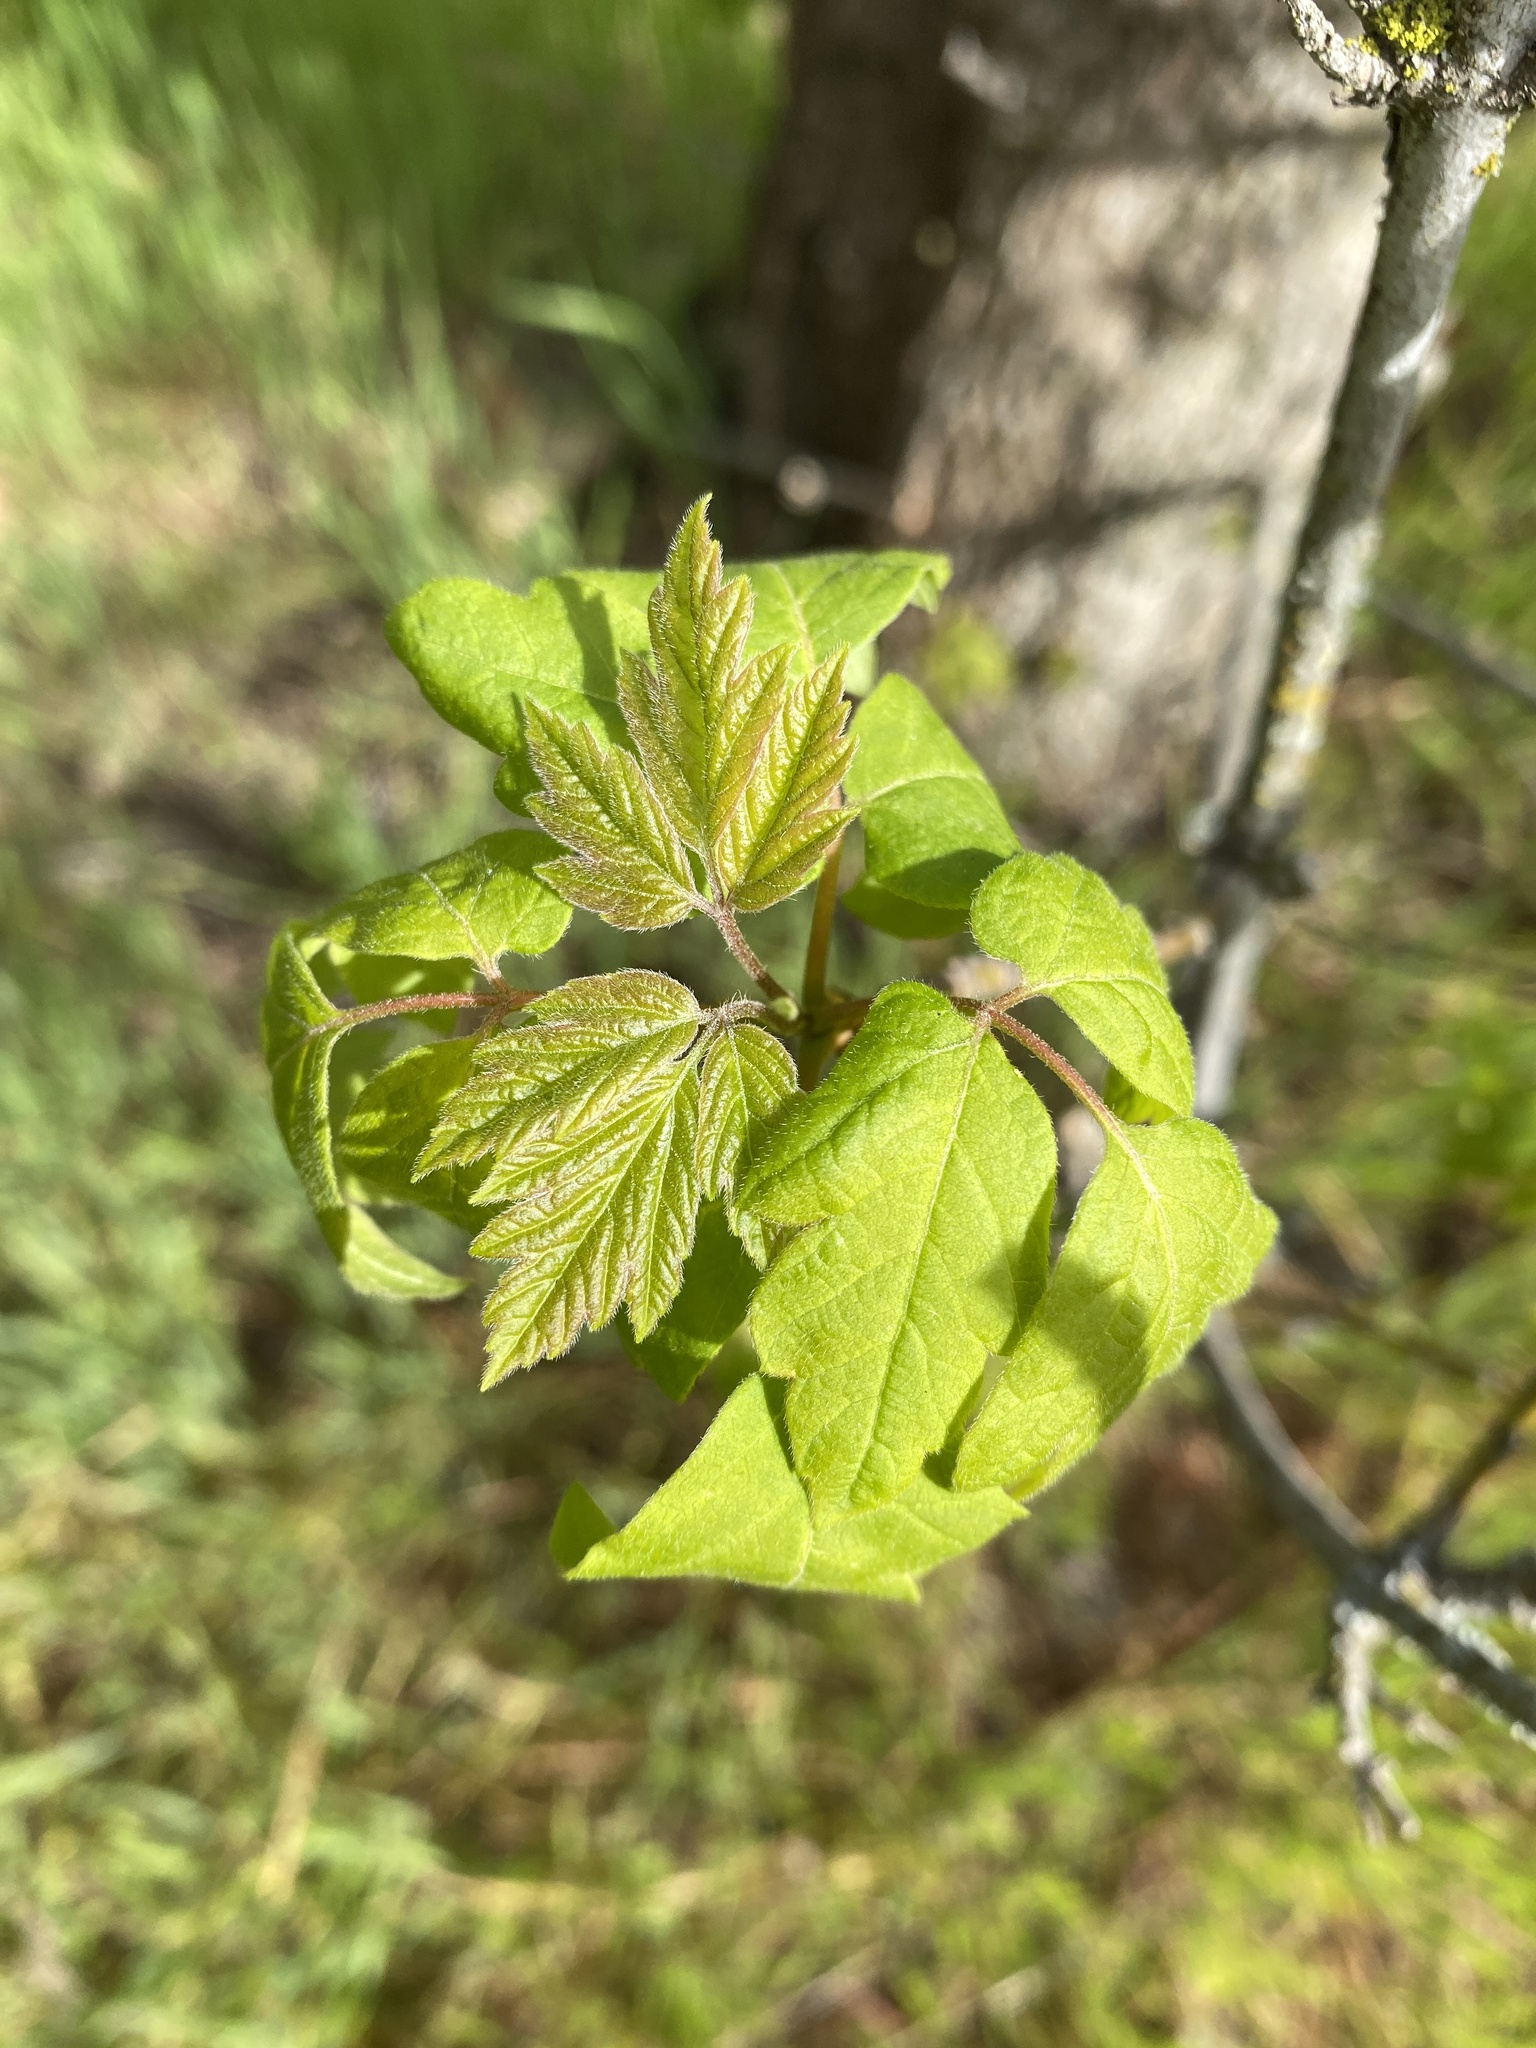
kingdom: Plantae
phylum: Tracheophyta
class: Magnoliopsida
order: Sapindales
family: Sapindaceae
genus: Acer
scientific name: Acer negundo
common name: Ashleaf maple
